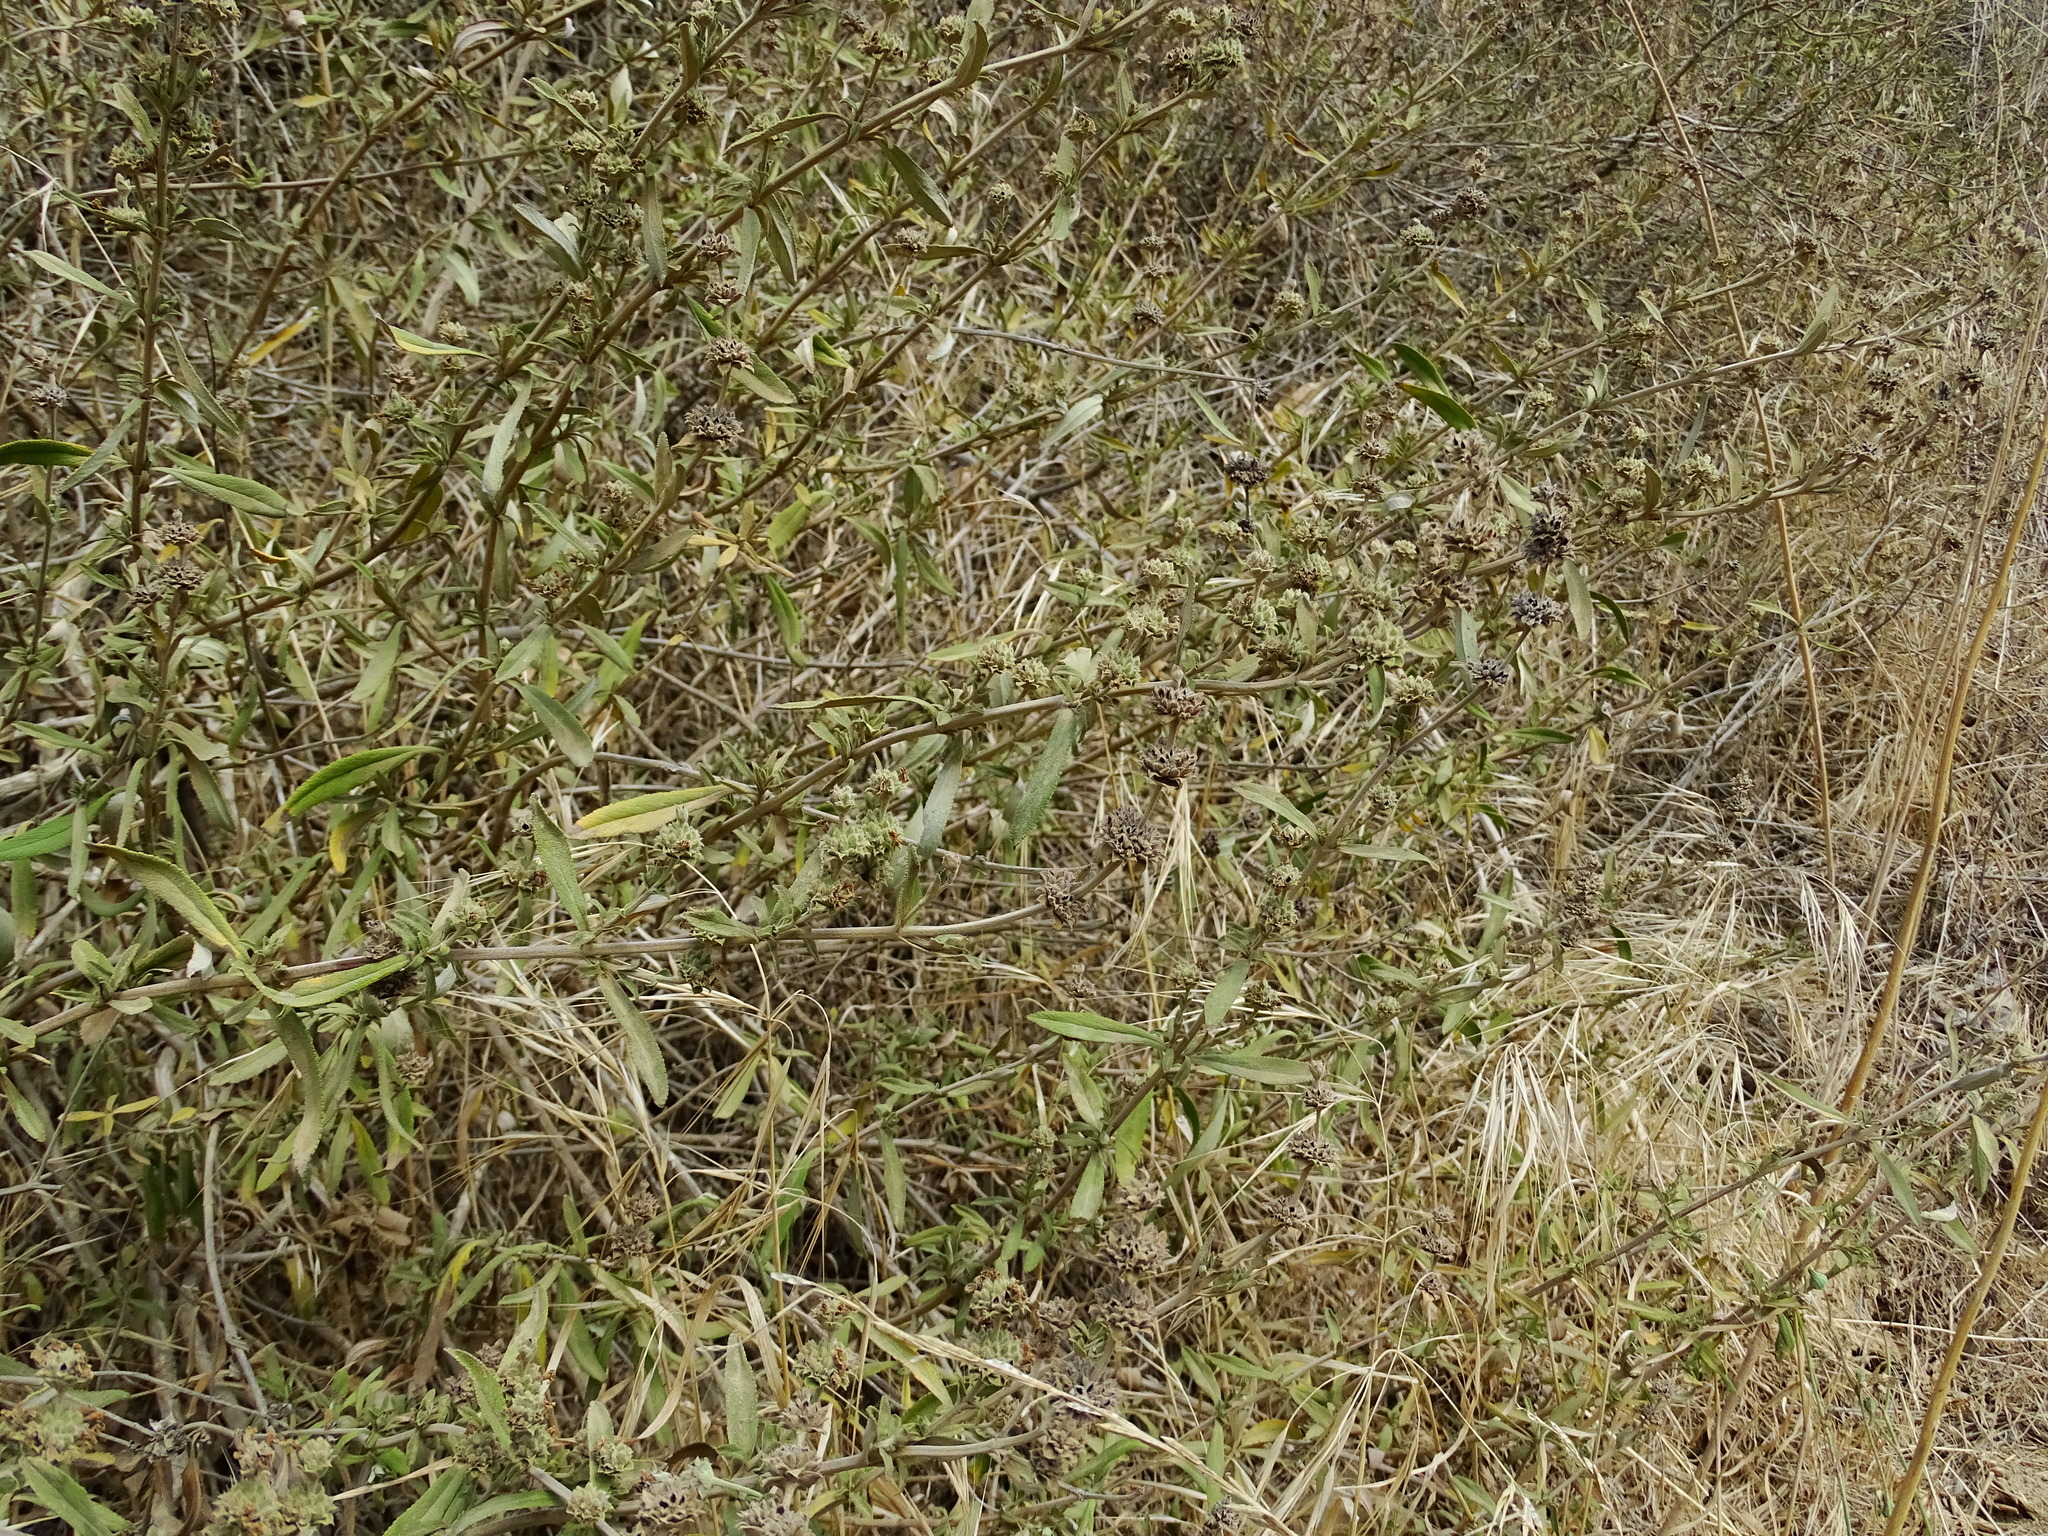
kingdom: Plantae
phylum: Tracheophyta
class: Magnoliopsida
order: Lamiales
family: Lamiaceae
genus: Salvia
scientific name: Salvia mellifera
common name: Black sage
